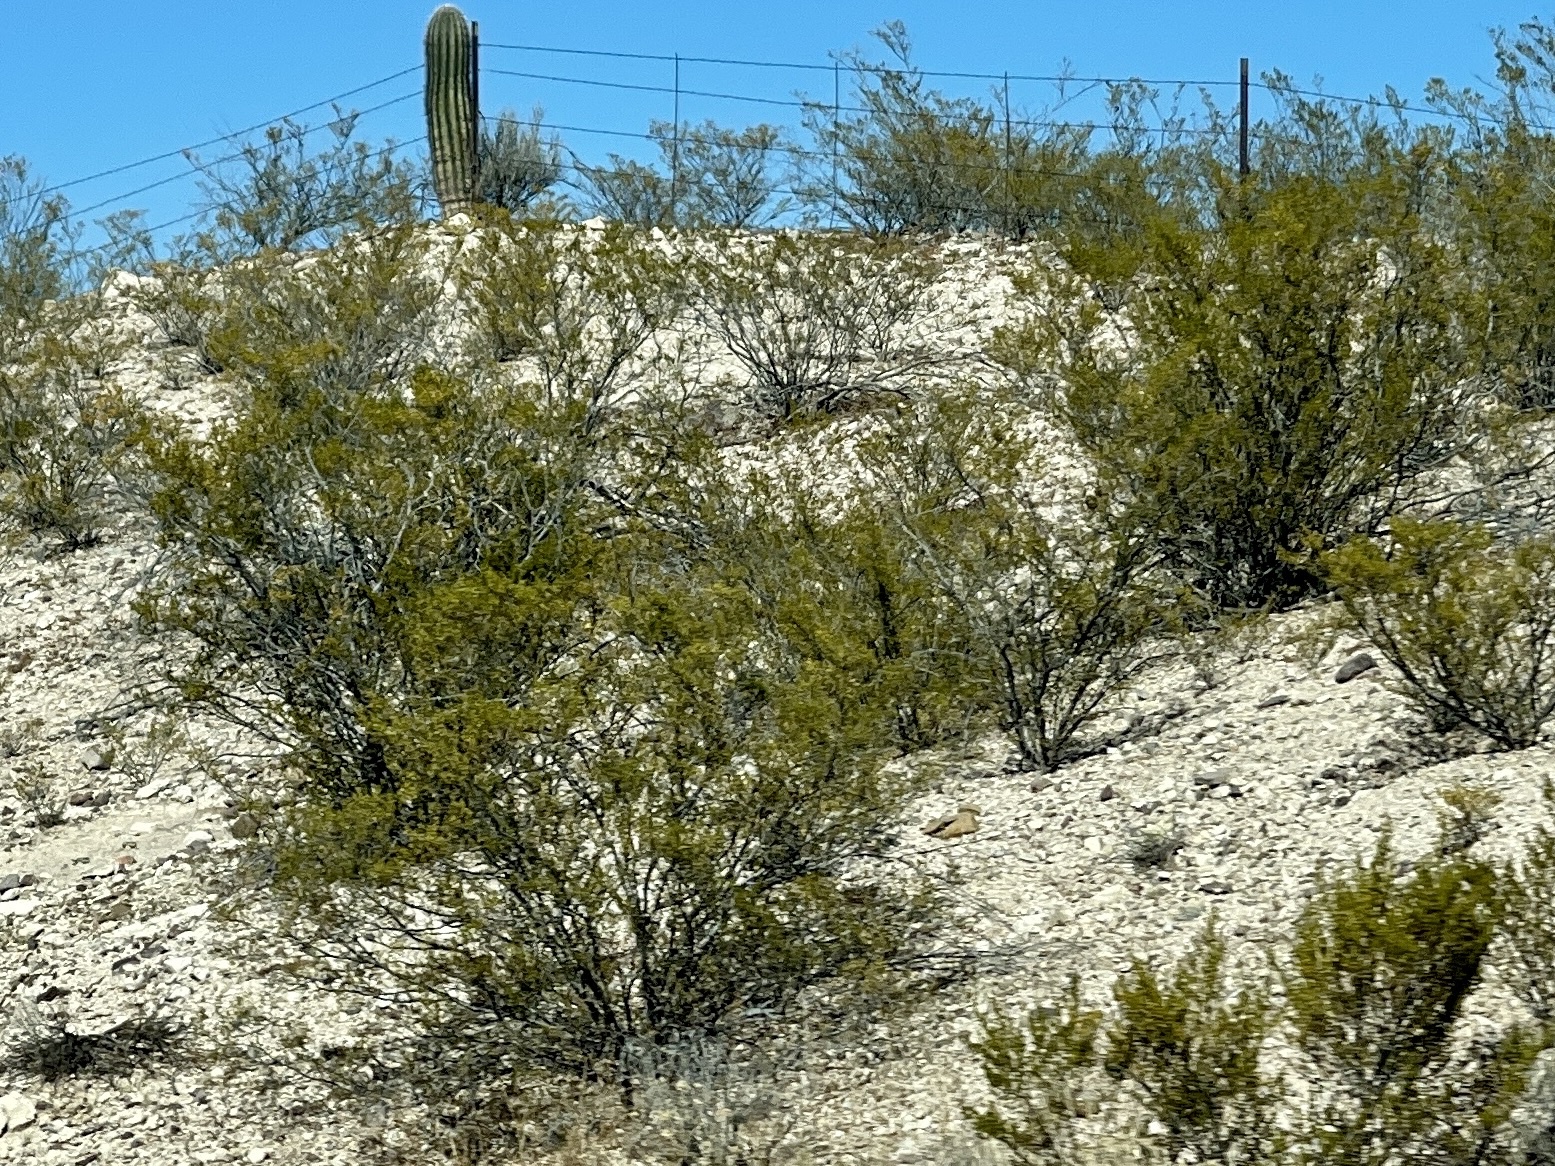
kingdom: Plantae
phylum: Tracheophyta
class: Magnoliopsida
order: Zygophyllales
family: Zygophyllaceae
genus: Larrea
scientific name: Larrea tridentata
